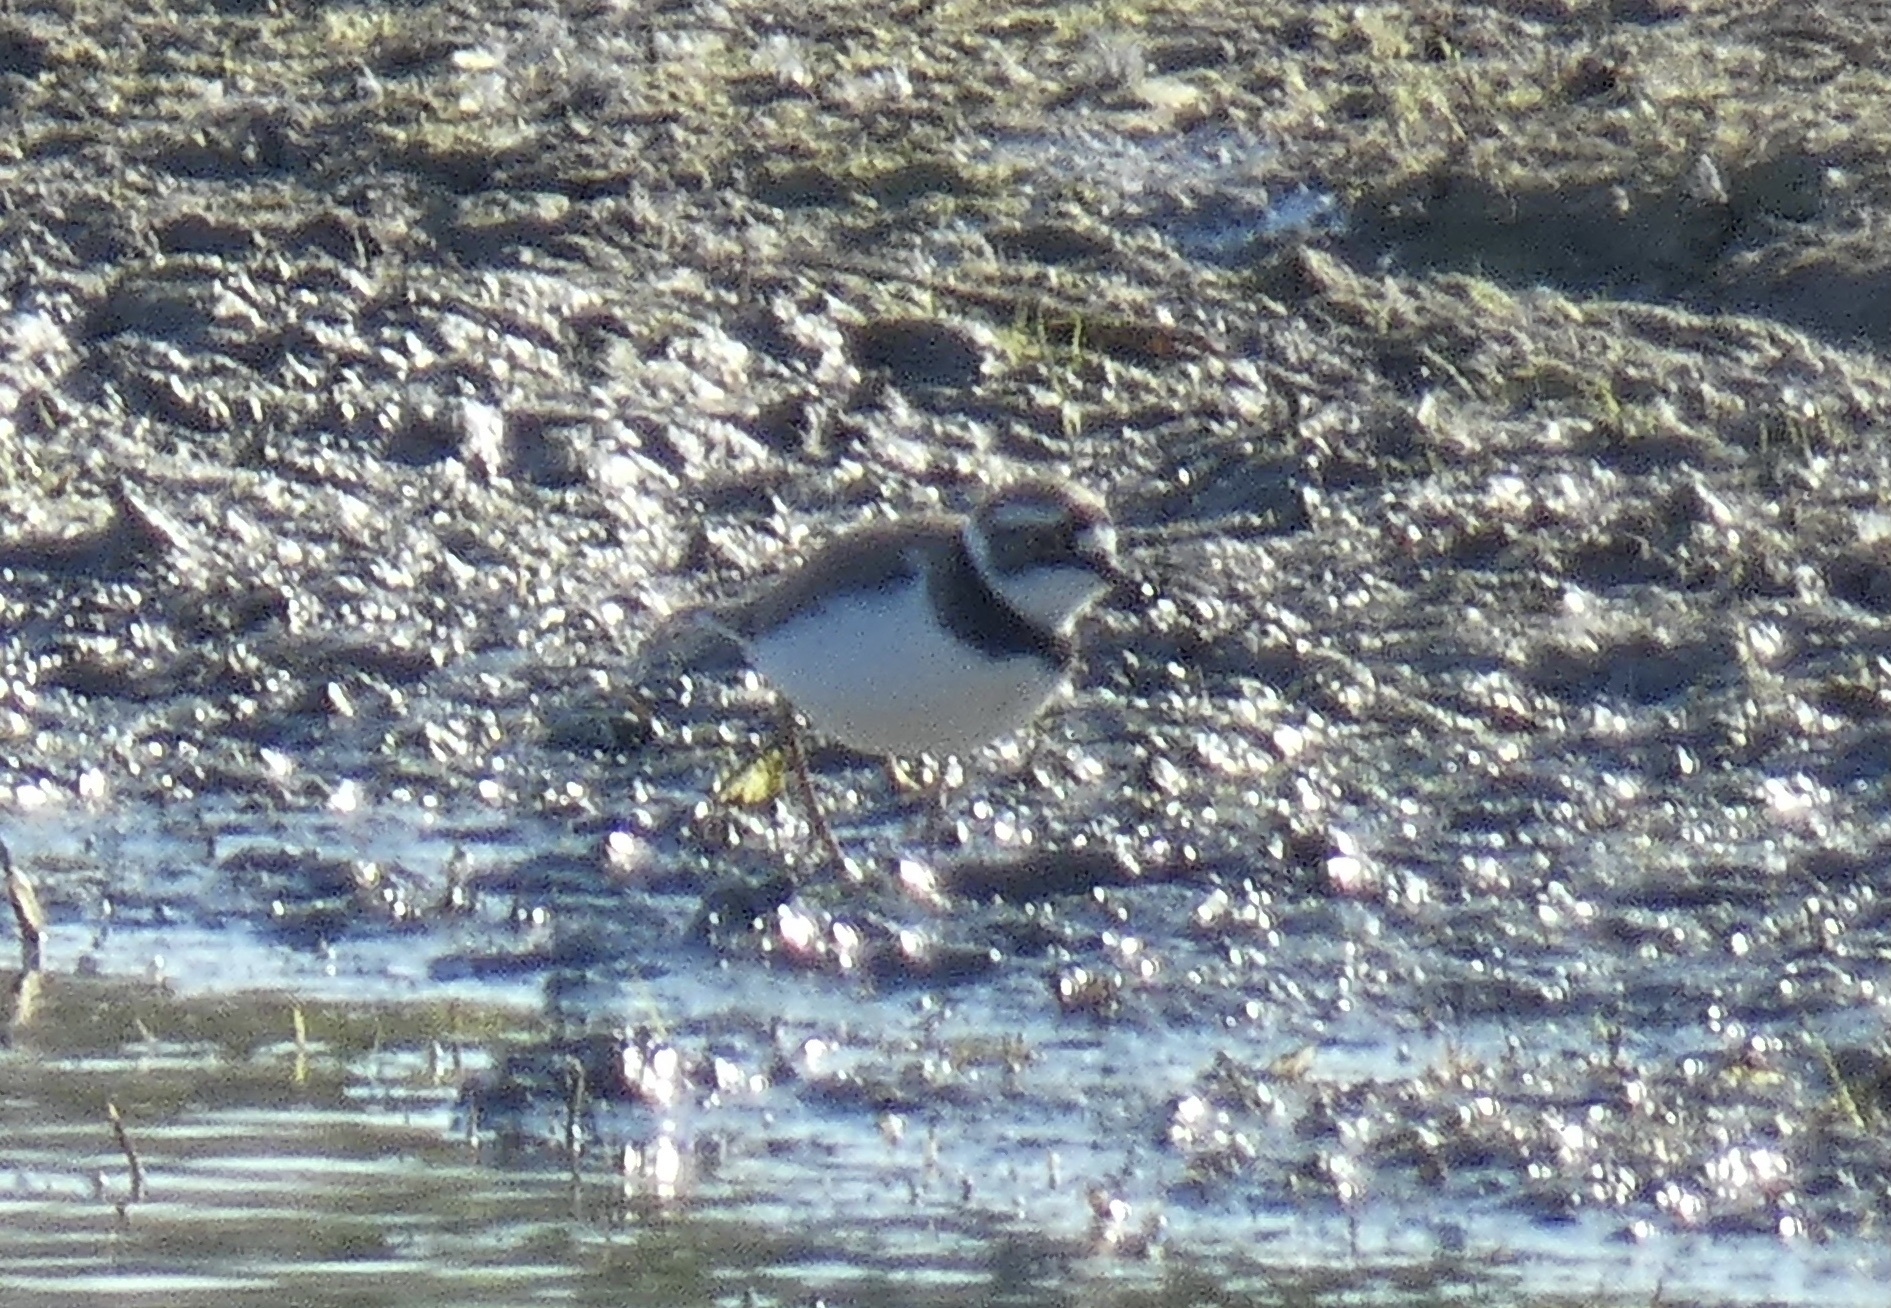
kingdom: Animalia
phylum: Chordata
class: Aves
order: Charadriiformes
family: Charadriidae
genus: Charadrius
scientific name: Charadrius dubius
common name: Little ringed plover
